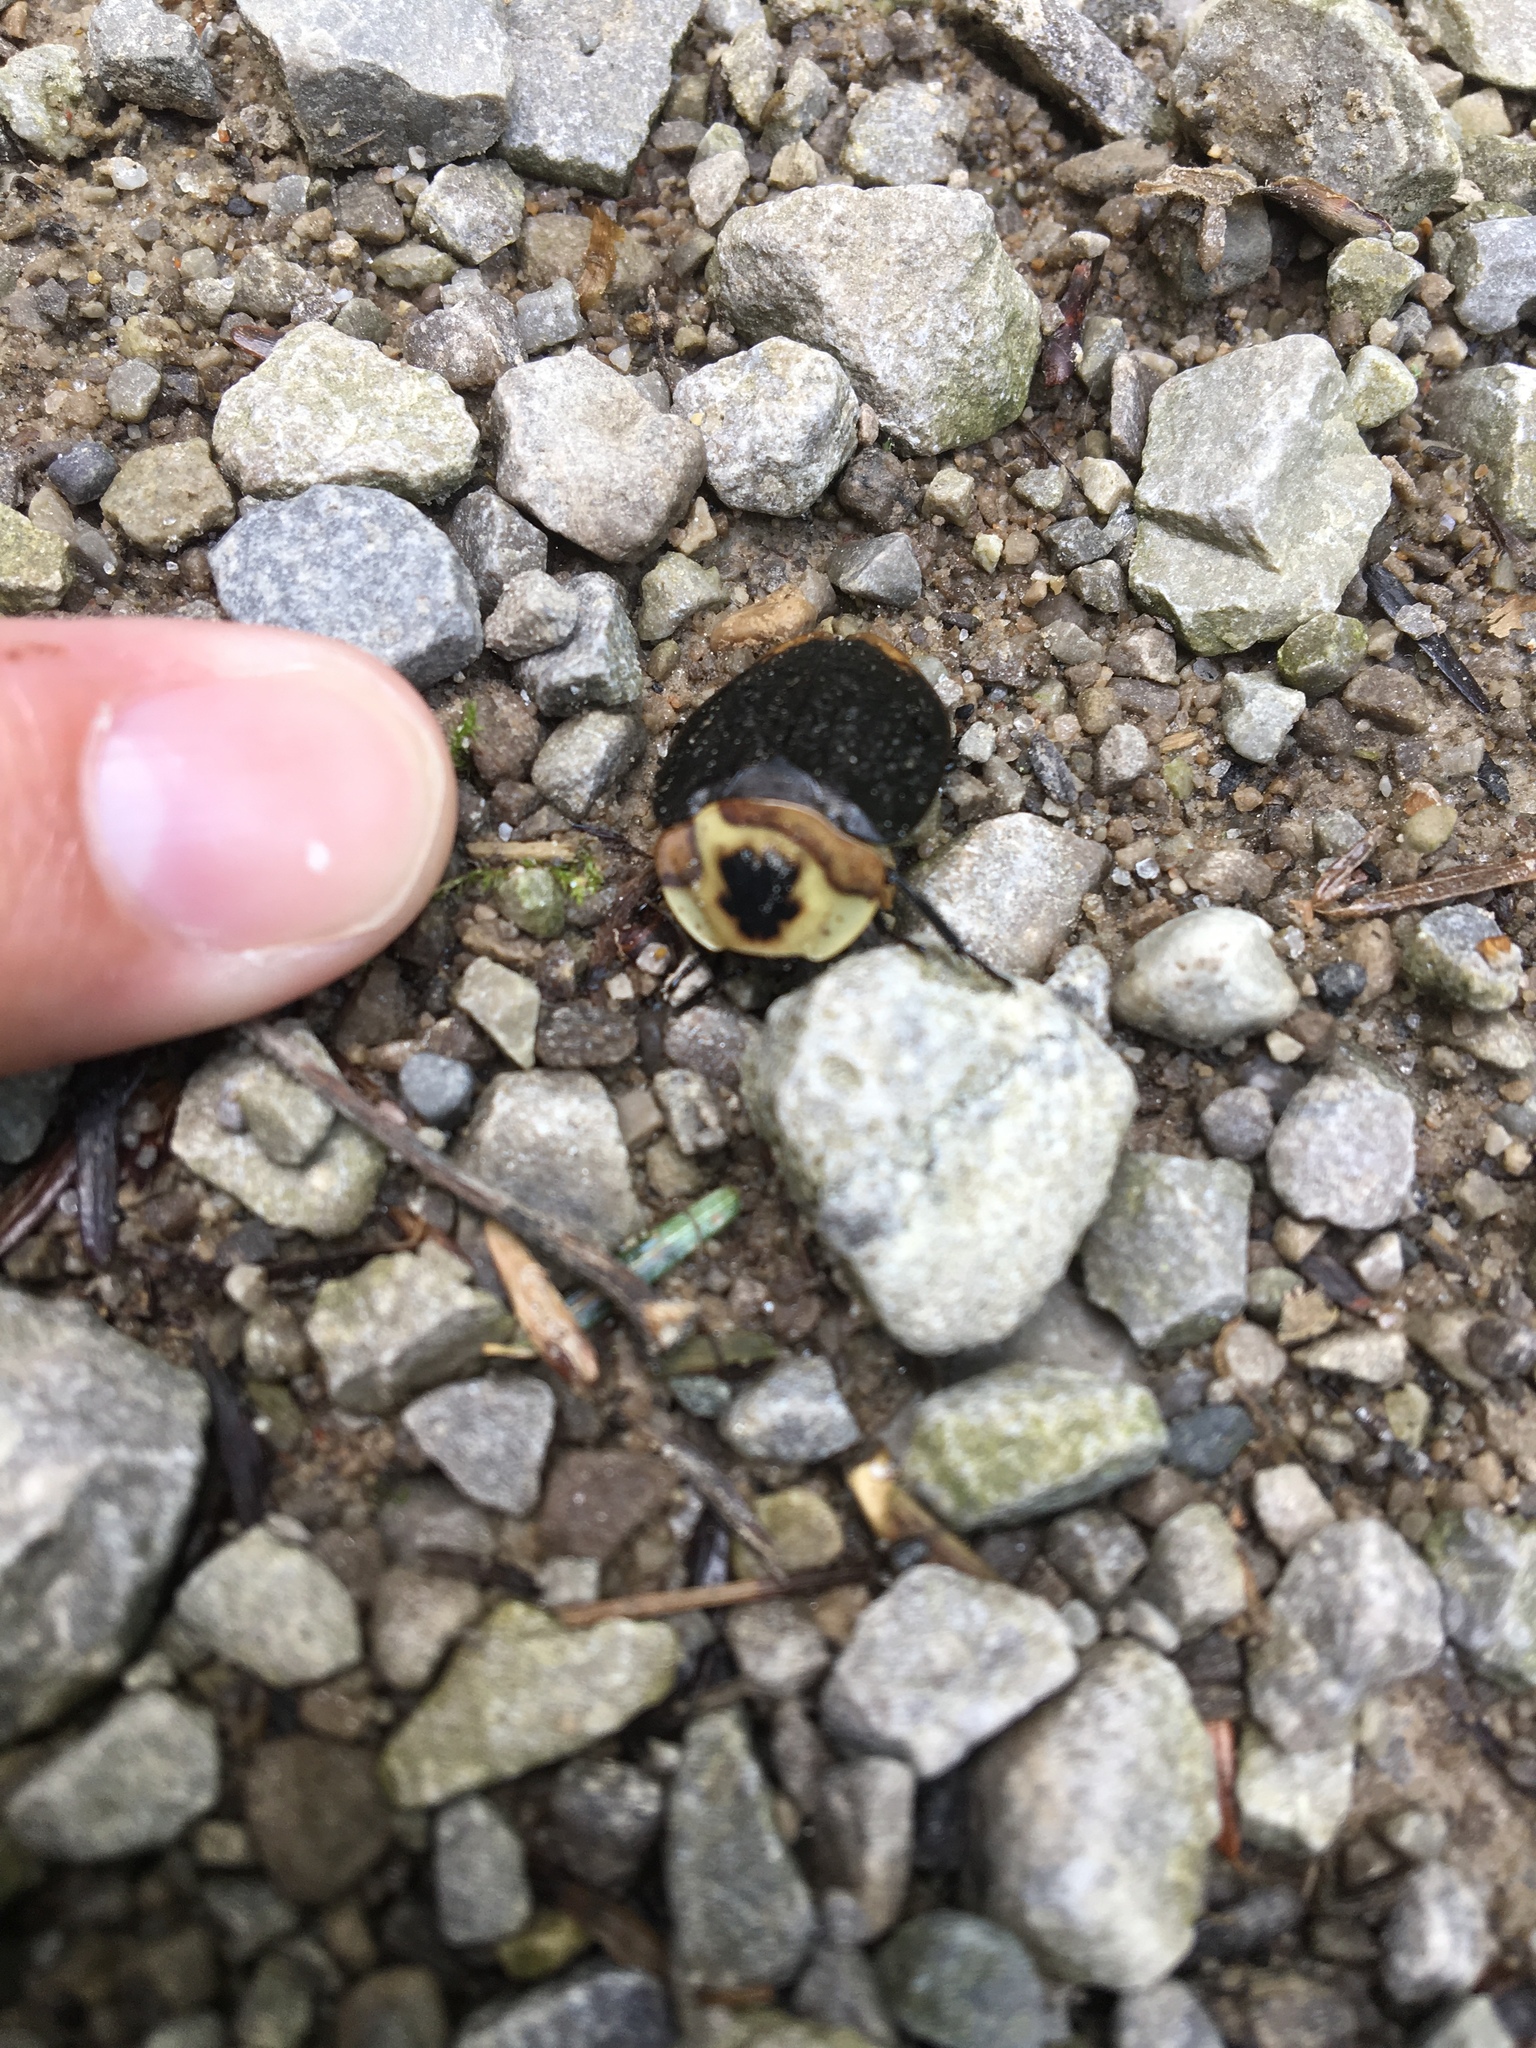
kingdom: Animalia
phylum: Arthropoda
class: Insecta
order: Coleoptera
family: Staphylinidae
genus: Necrophila
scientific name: Necrophila americana
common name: American carrion beetle
